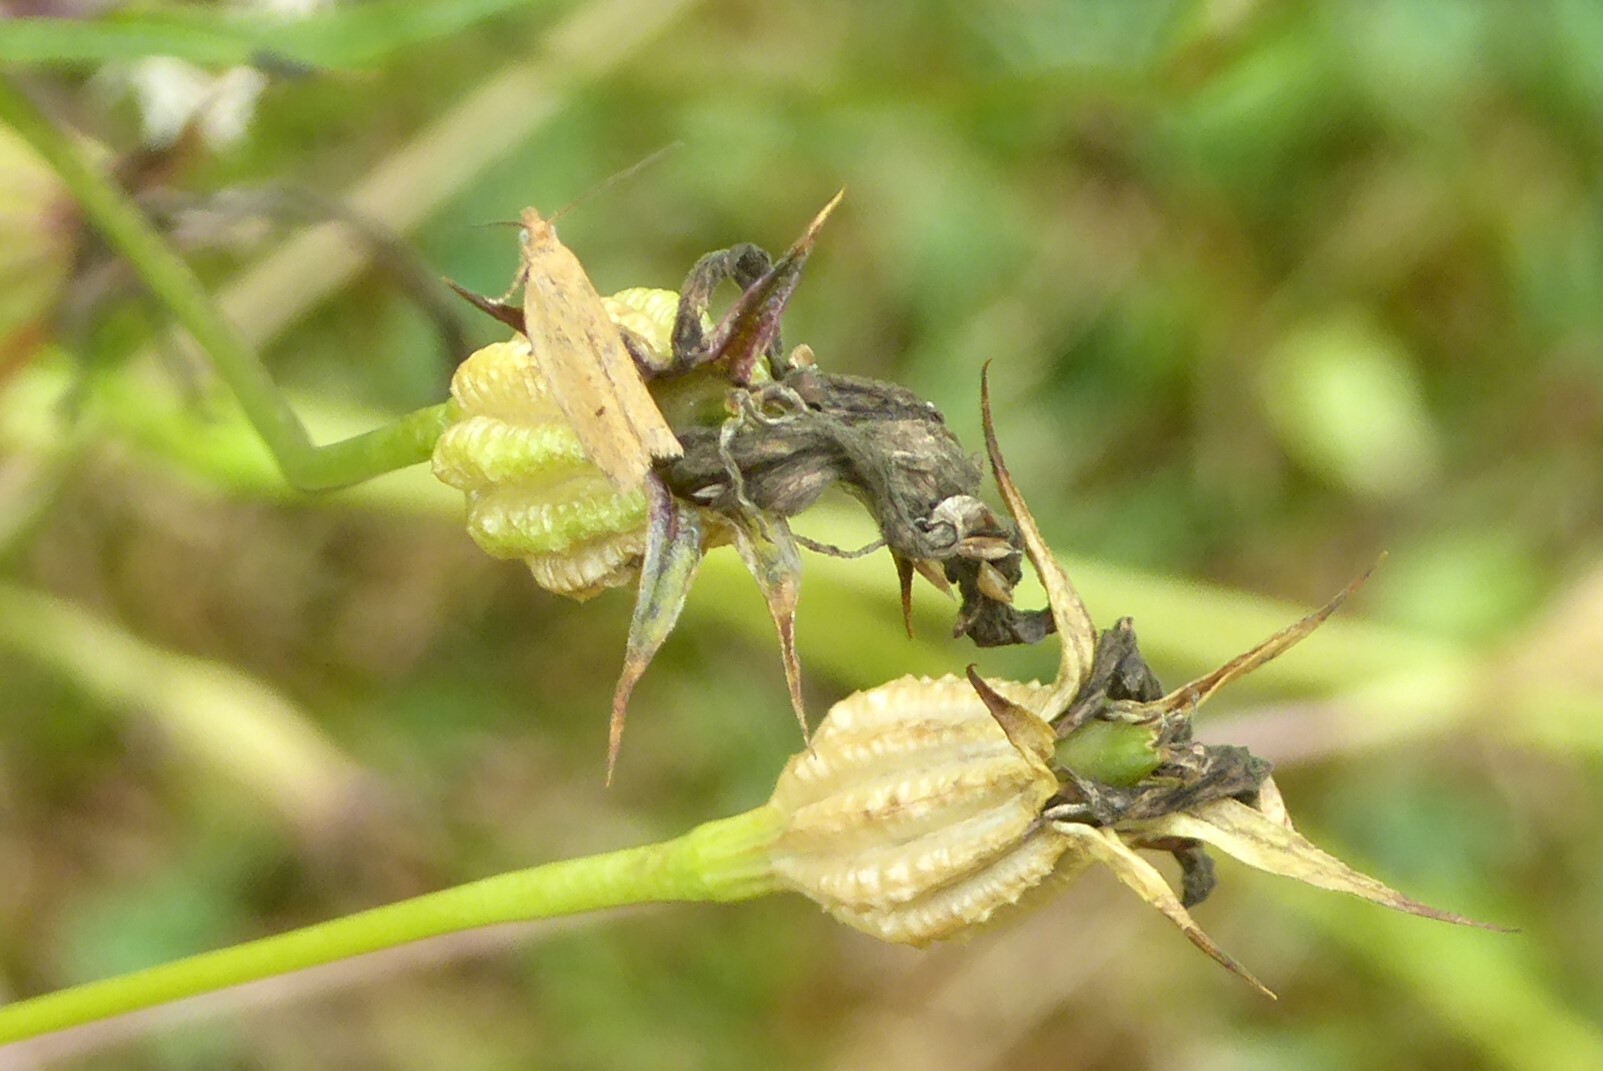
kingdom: Animalia
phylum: Arthropoda
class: Insecta
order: Lepidoptera
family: Tortricidae
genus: Epichorista
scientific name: Epichorista siriana
